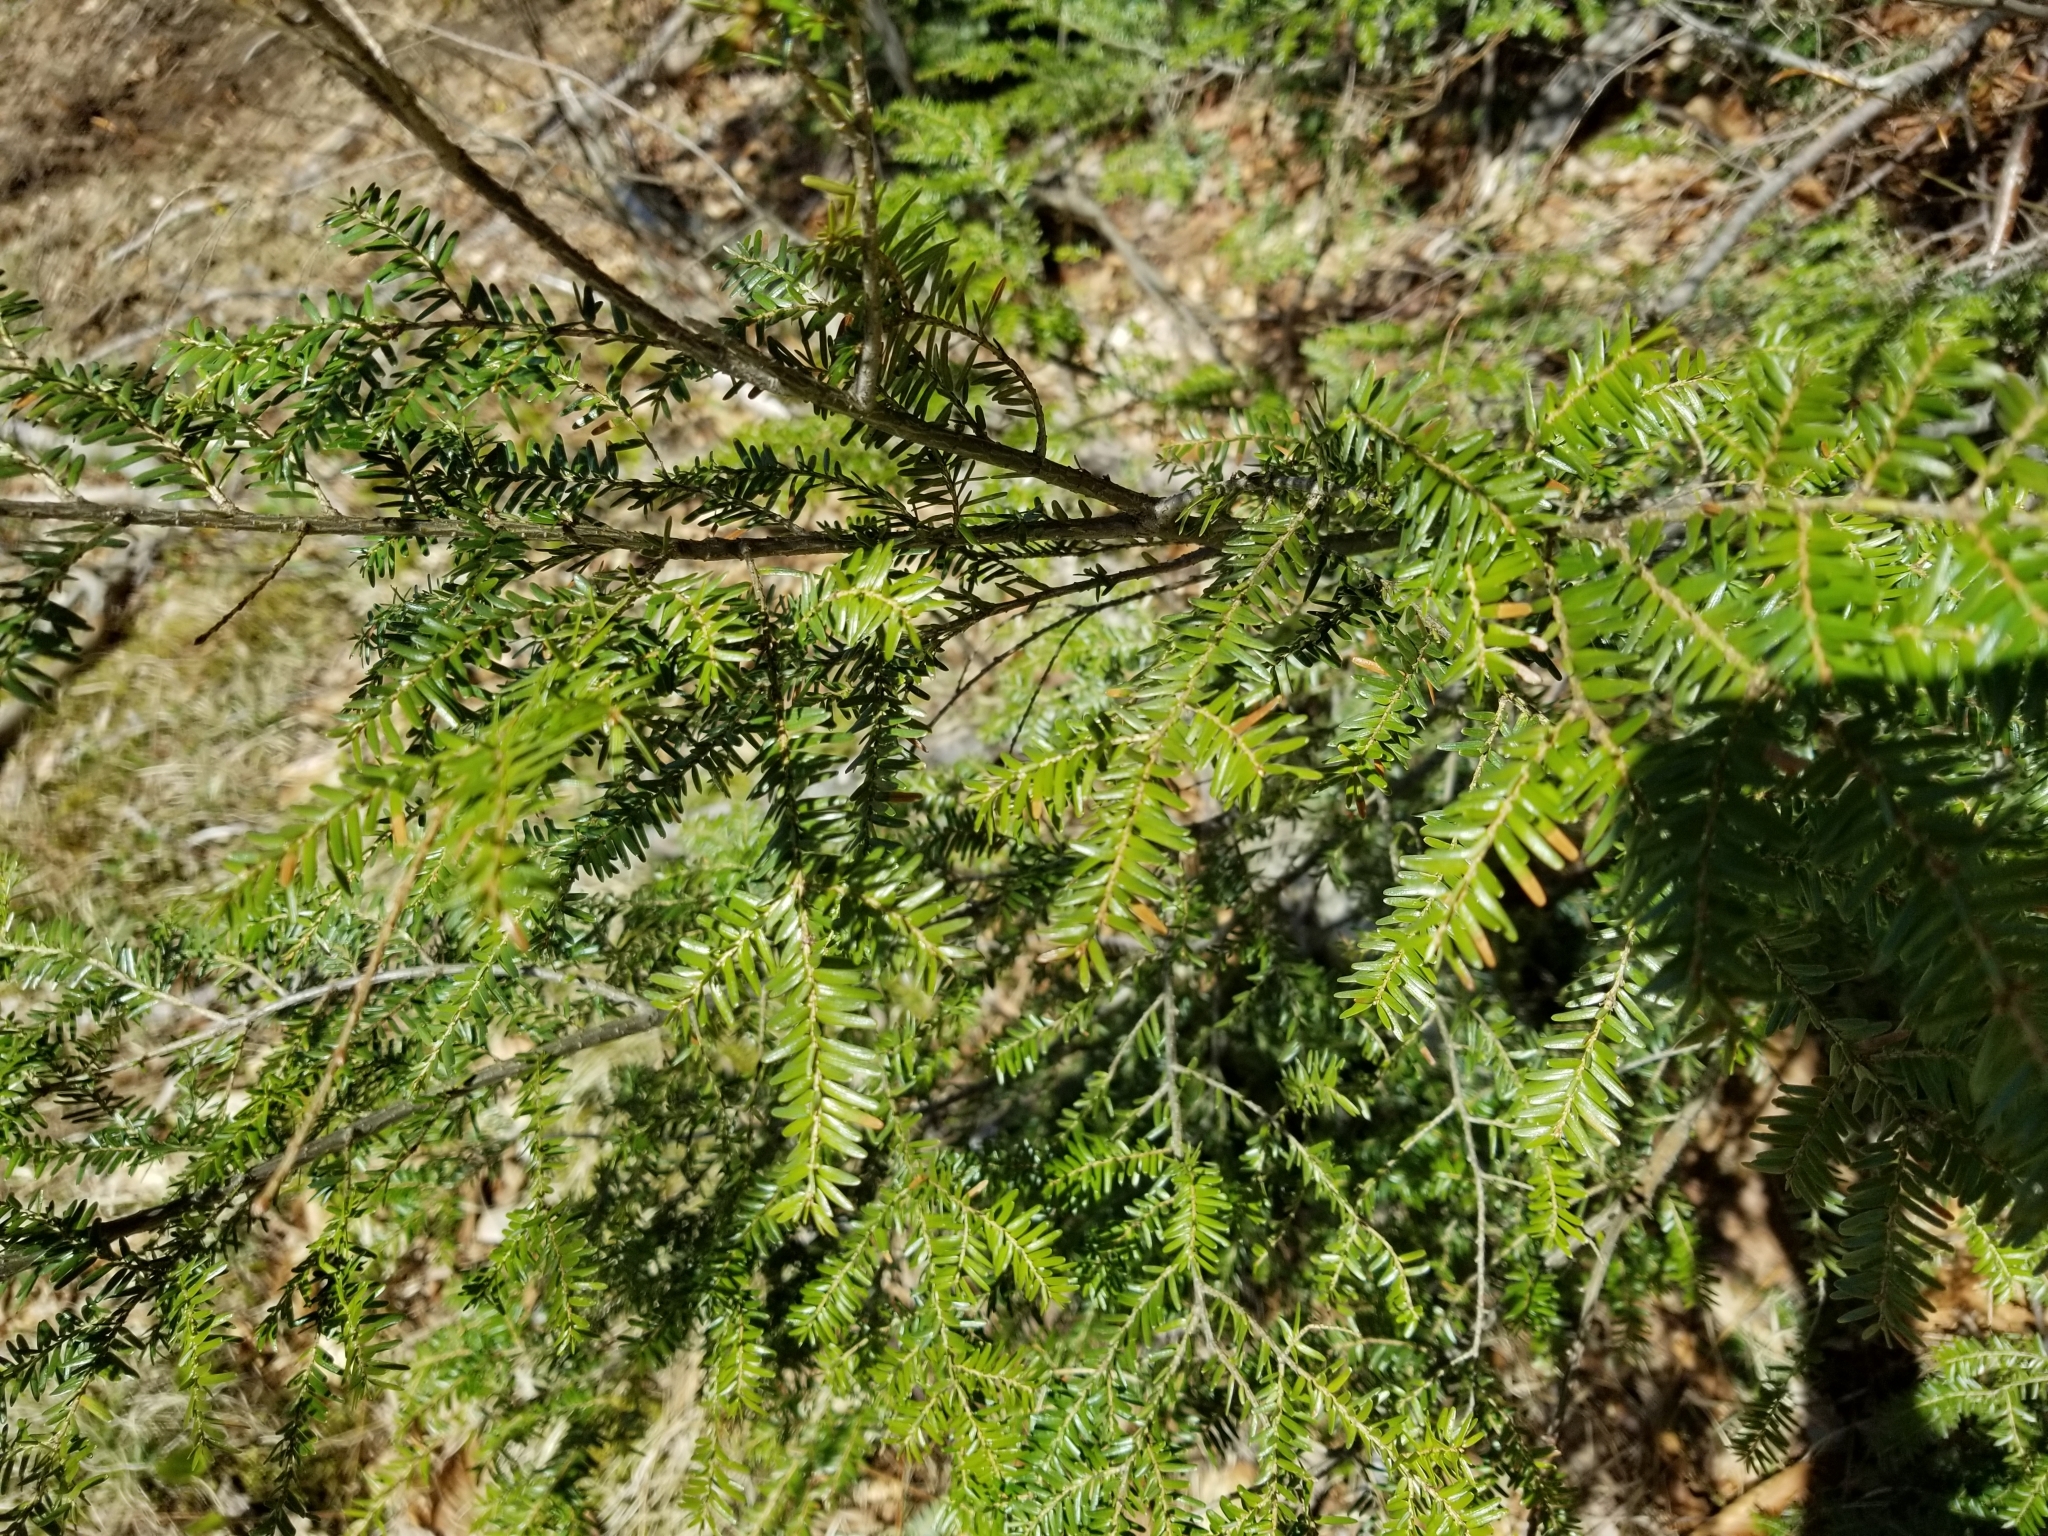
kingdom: Plantae
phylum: Tracheophyta
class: Pinopsida
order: Pinales
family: Pinaceae
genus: Tsuga
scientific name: Tsuga canadensis
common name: Eastern hemlock
